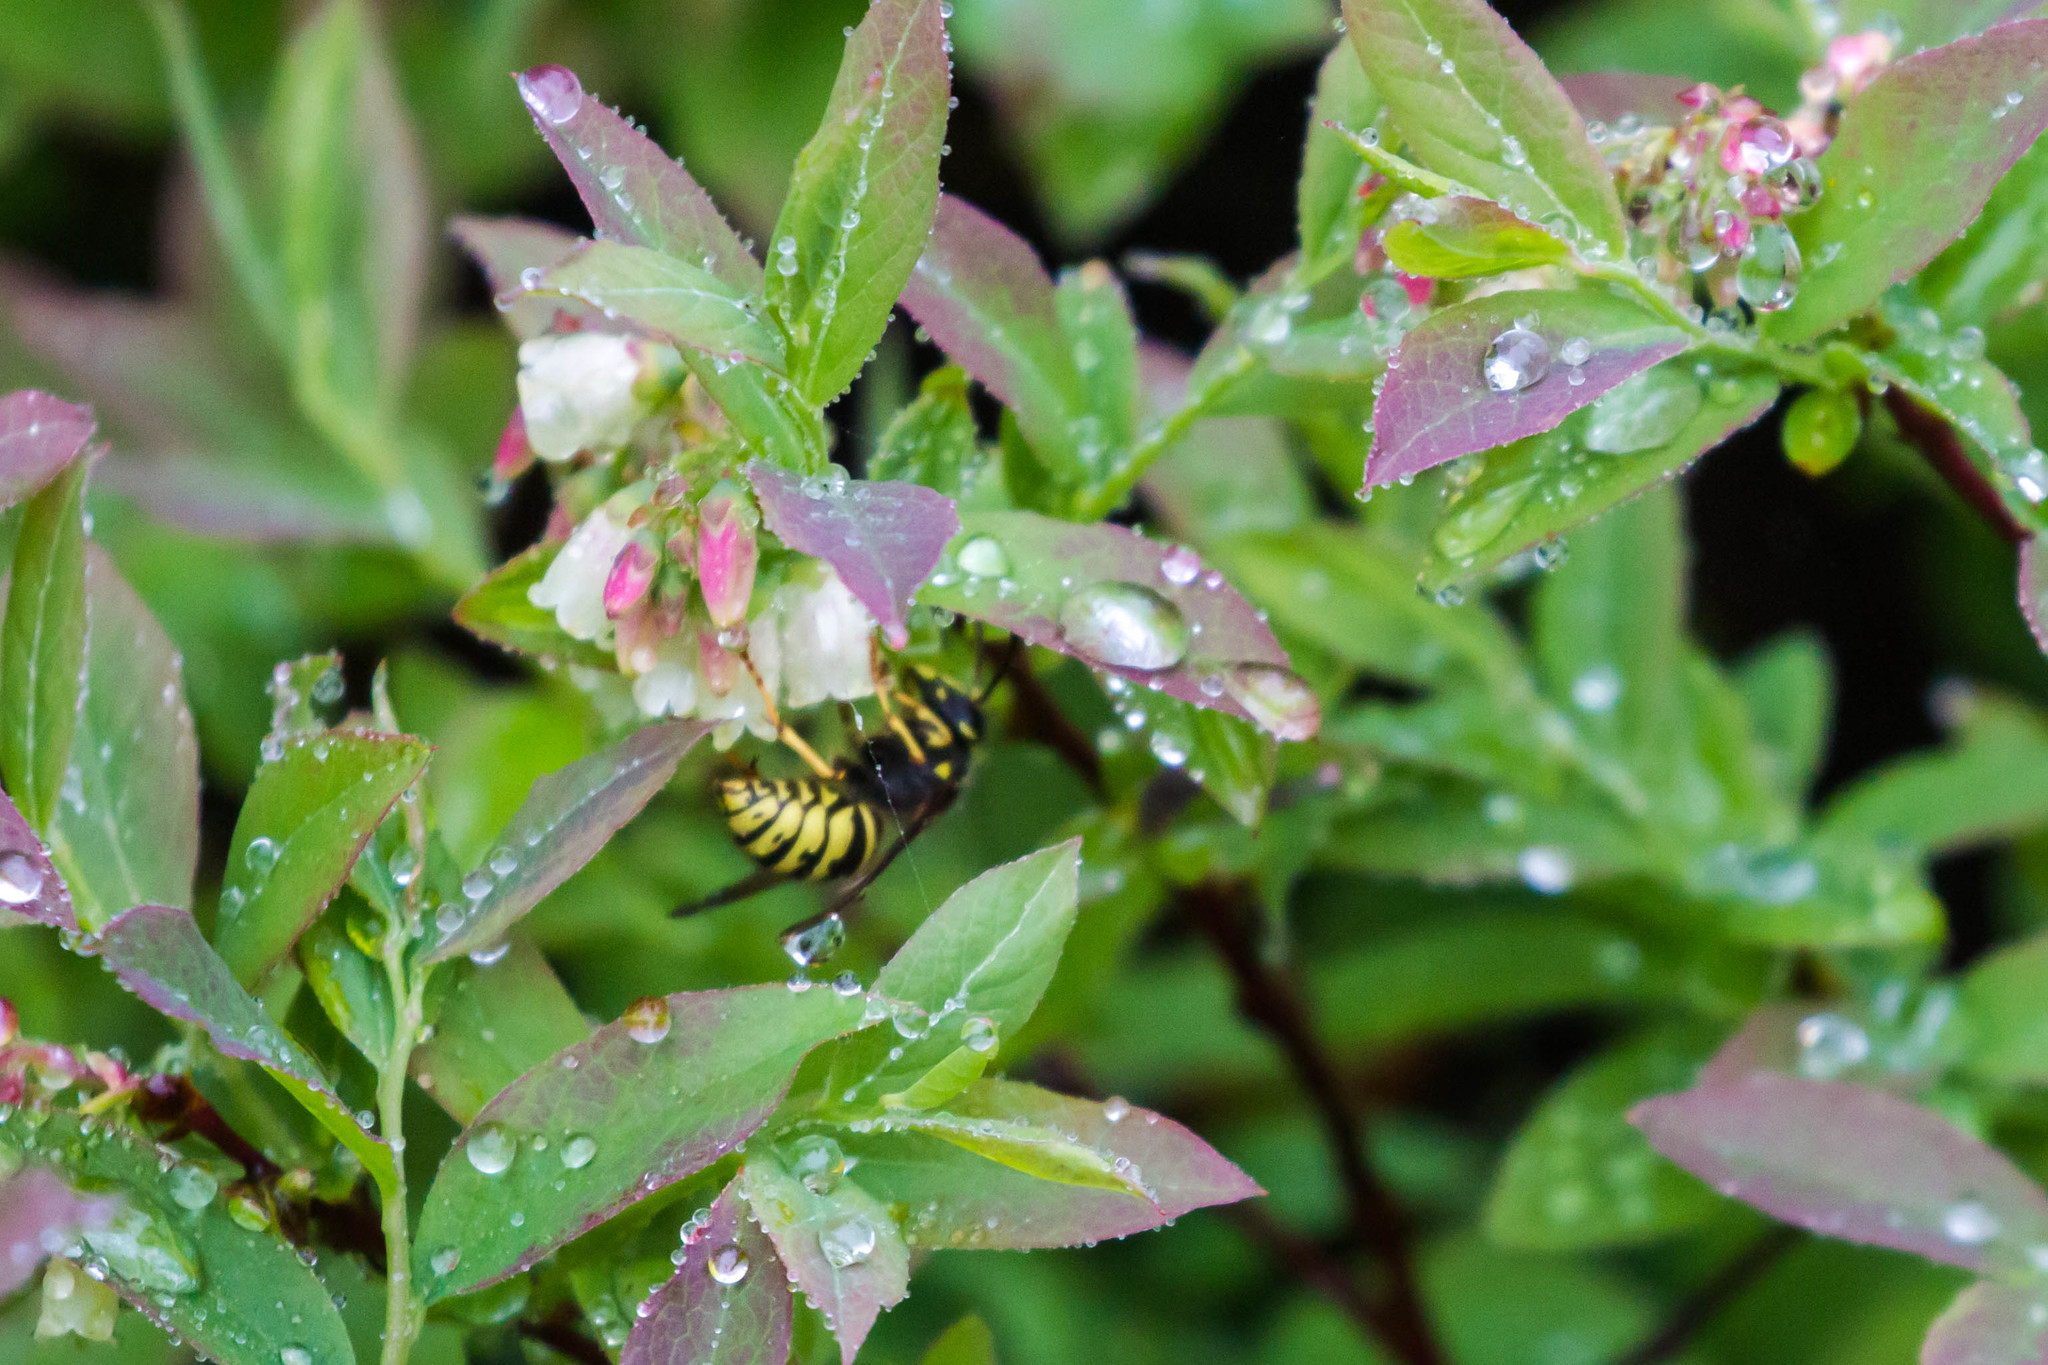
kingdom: Animalia
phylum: Arthropoda
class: Insecta
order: Hymenoptera
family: Vespidae
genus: Dolichovespula
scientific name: Dolichovespula norvegicoides
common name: Northern aerial yellowjacket
